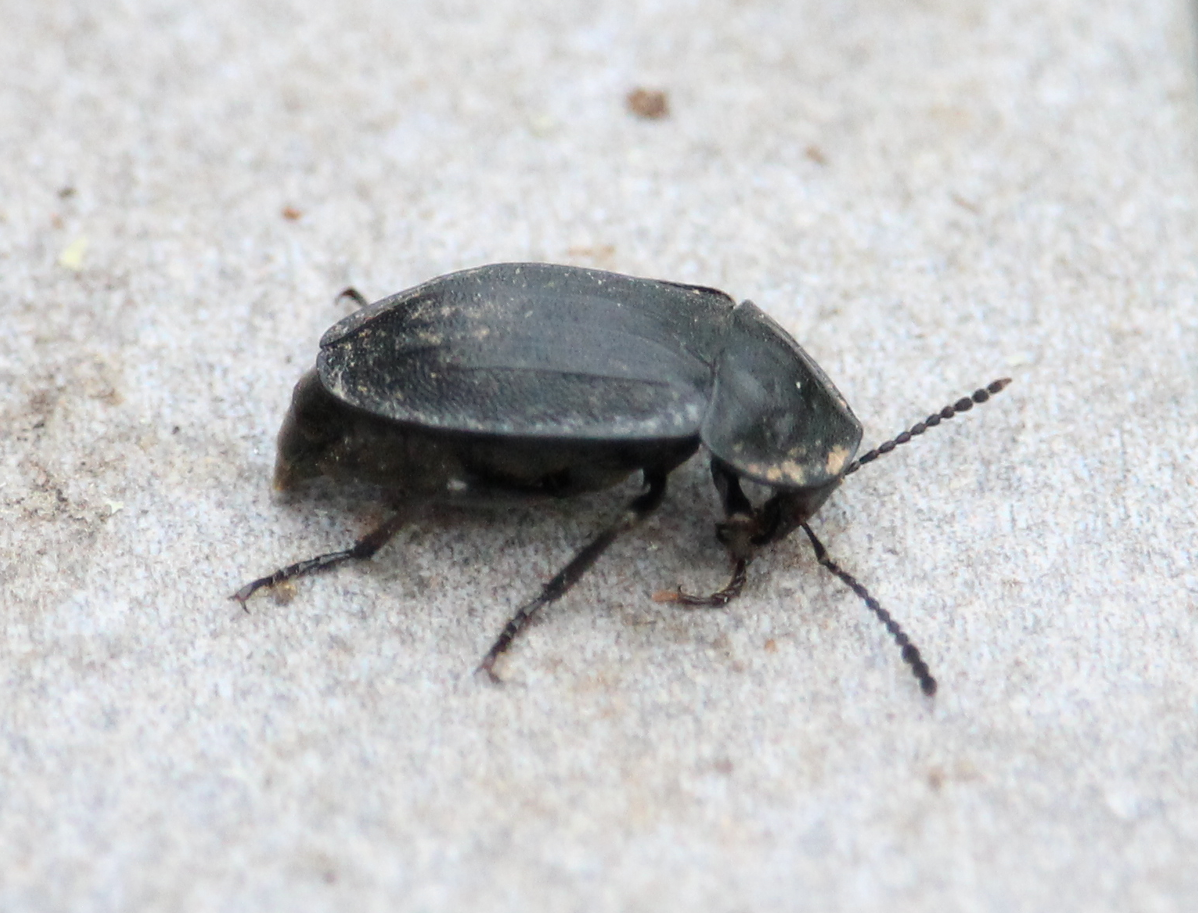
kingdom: Animalia
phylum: Arthropoda
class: Insecta
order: Coleoptera
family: Staphylinidae
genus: Silpha
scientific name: Silpha atrata
